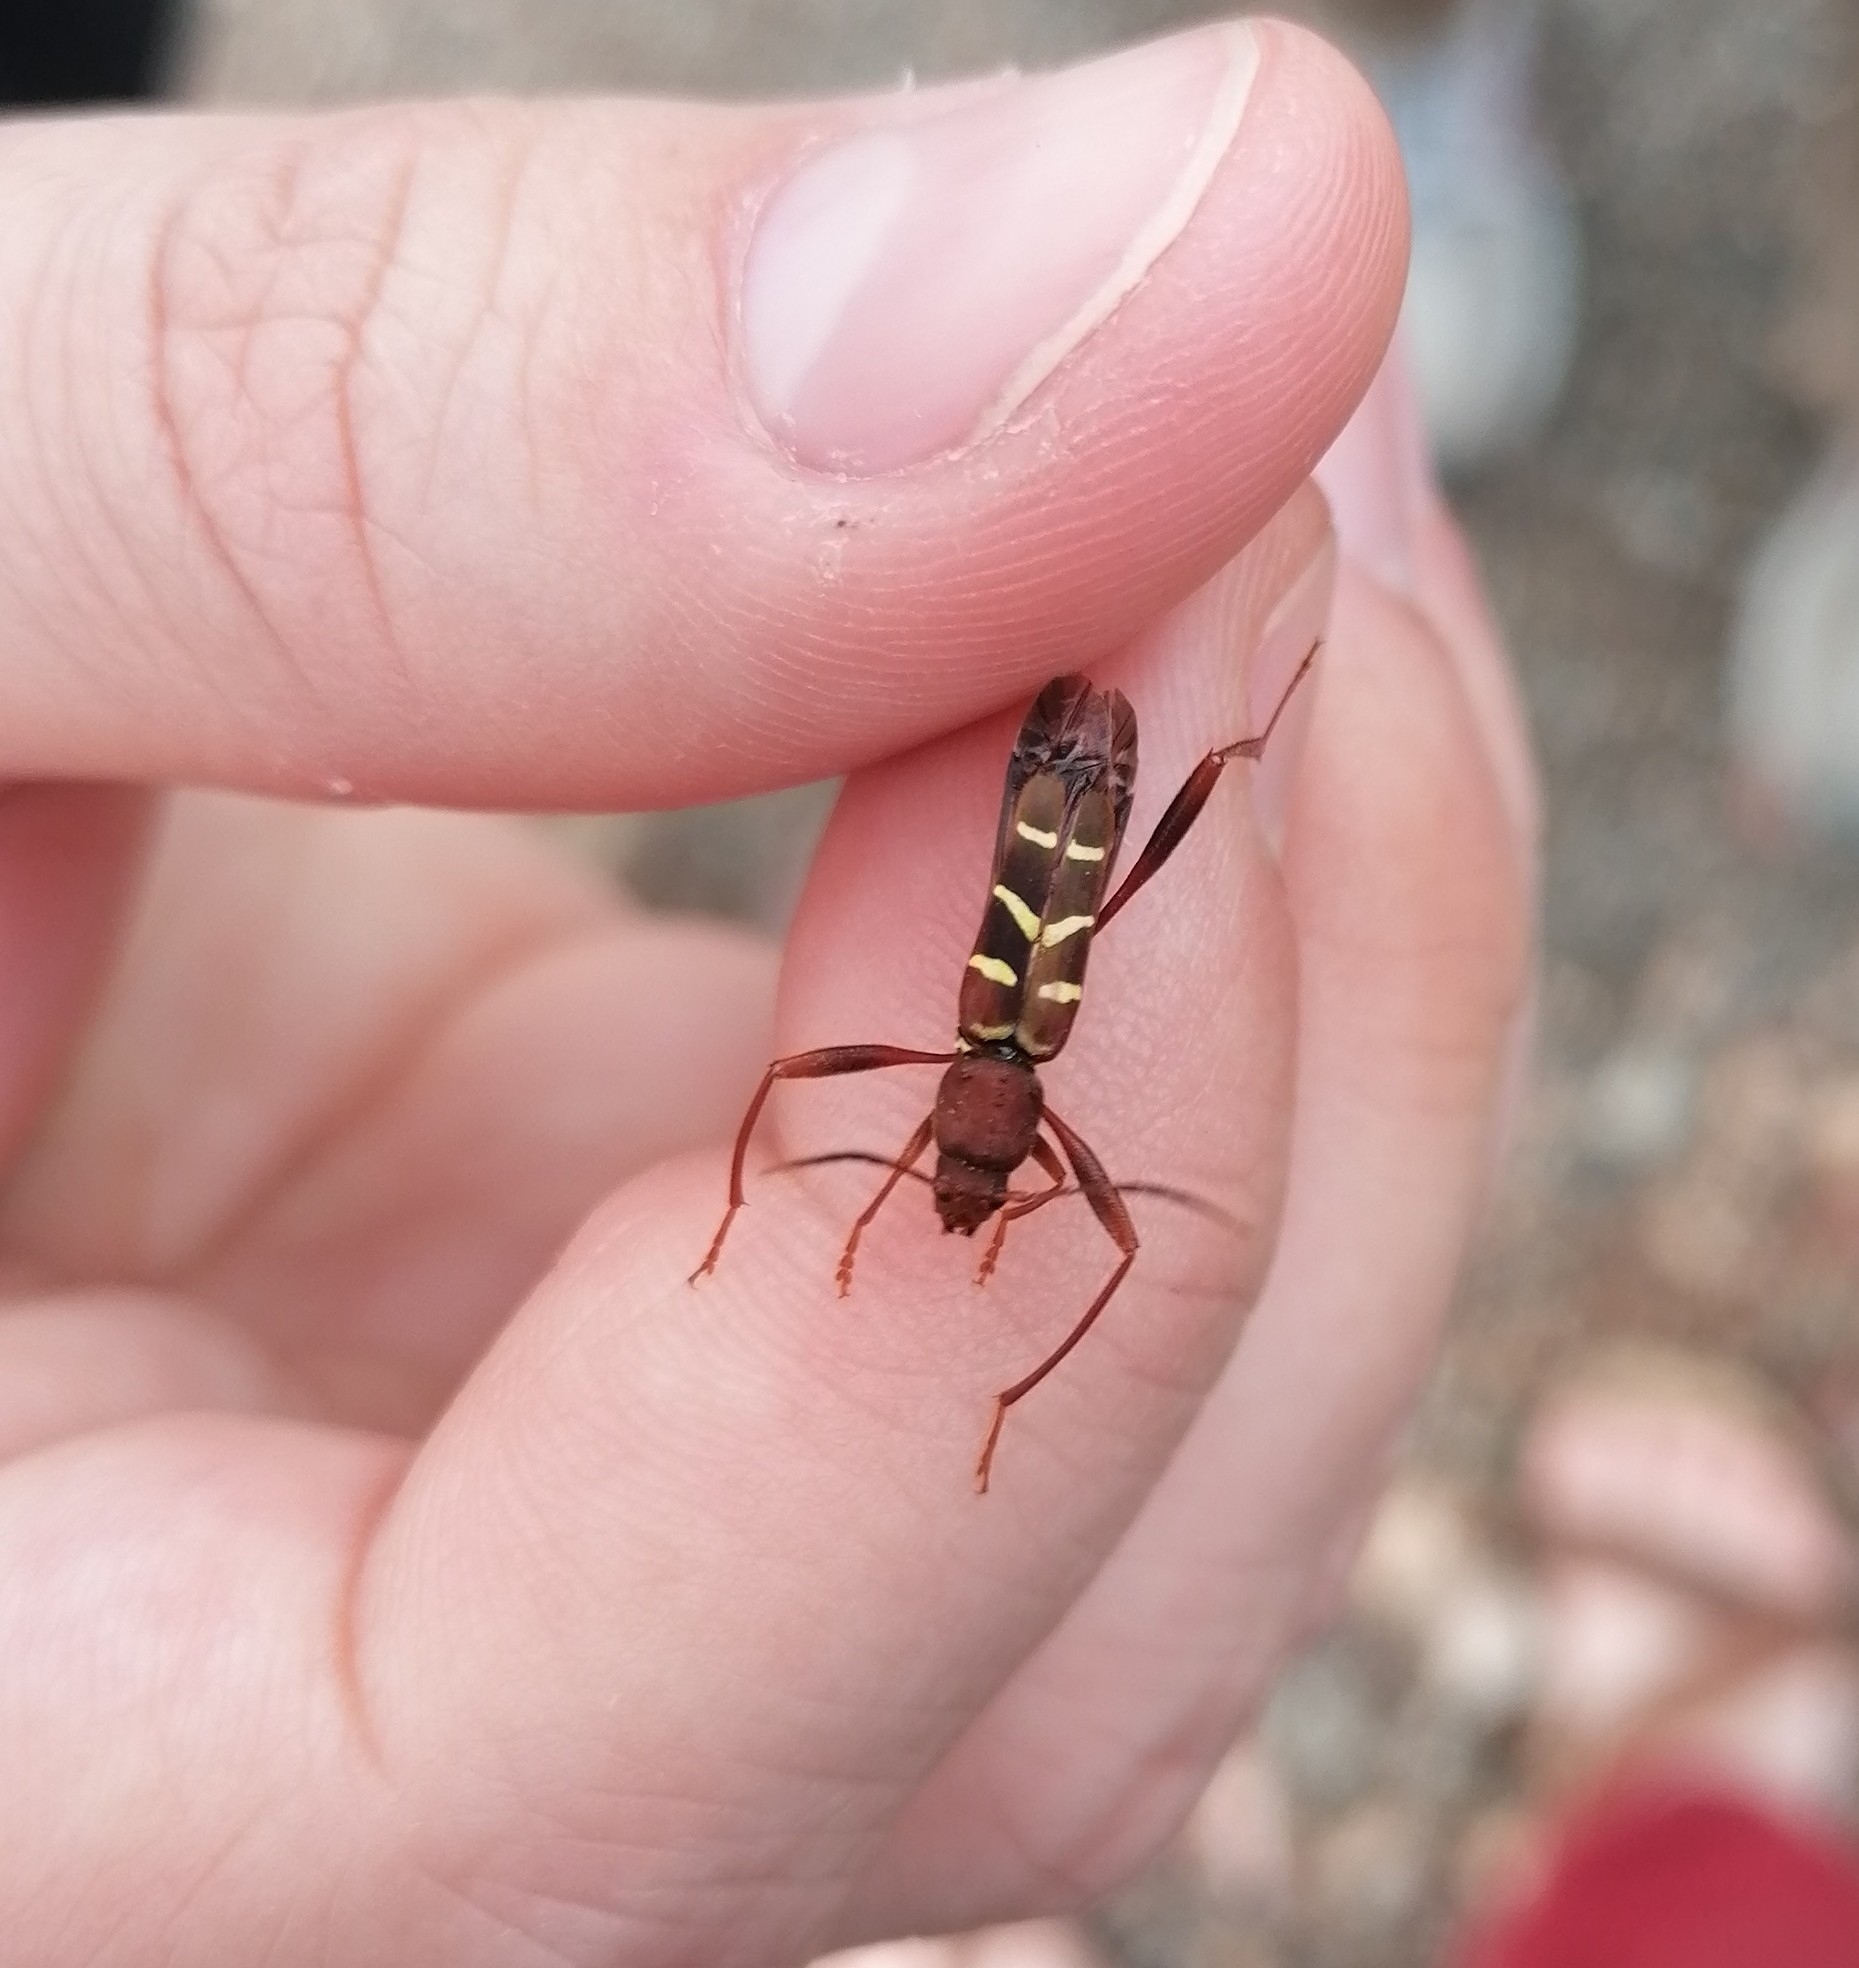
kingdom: Animalia
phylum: Arthropoda
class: Insecta
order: Coleoptera
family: Cerambycidae
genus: Neoclytus
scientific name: Neoclytus acuminatus
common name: Read-headed ash borer
